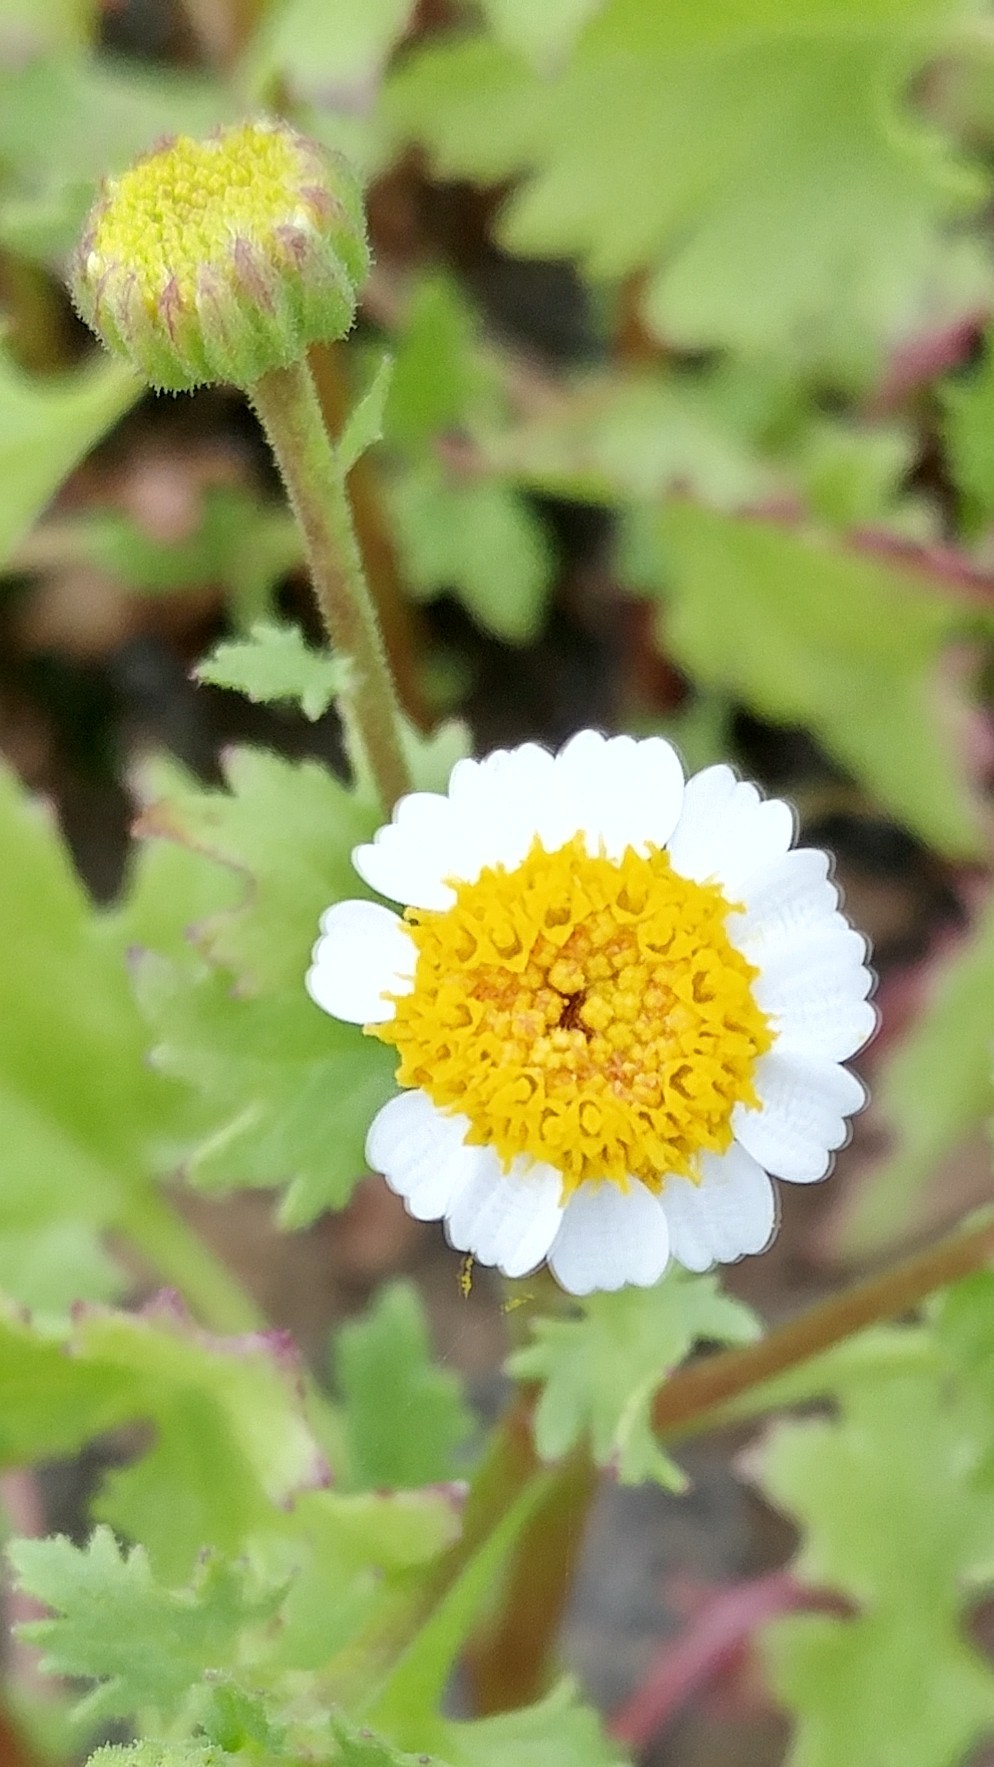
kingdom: Plantae
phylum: Tracheophyta
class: Magnoliopsida
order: Asterales
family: Asteraceae
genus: Laphamia
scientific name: Laphamia emoryi
